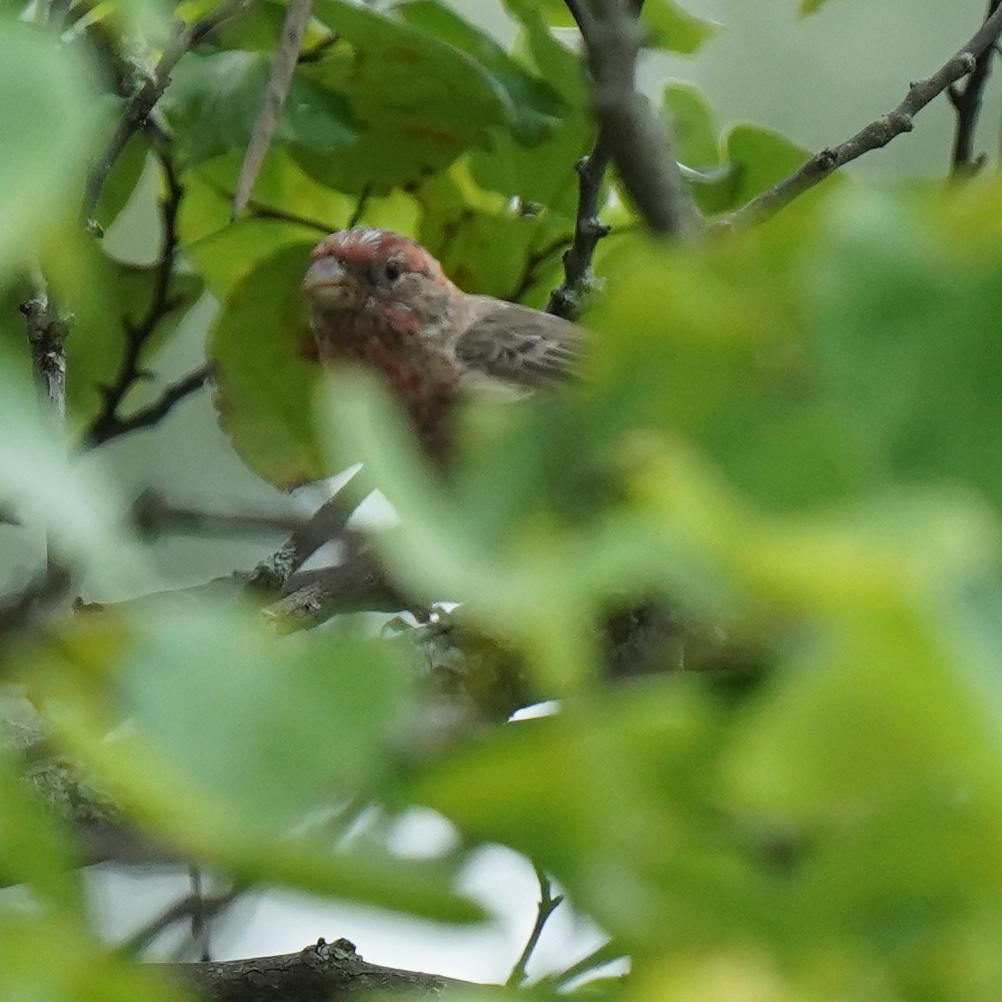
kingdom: Animalia
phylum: Chordata
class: Aves
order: Passeriformes
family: Fringillidae
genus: Haemorhous
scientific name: Haemorhous mexicanus
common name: House finch
